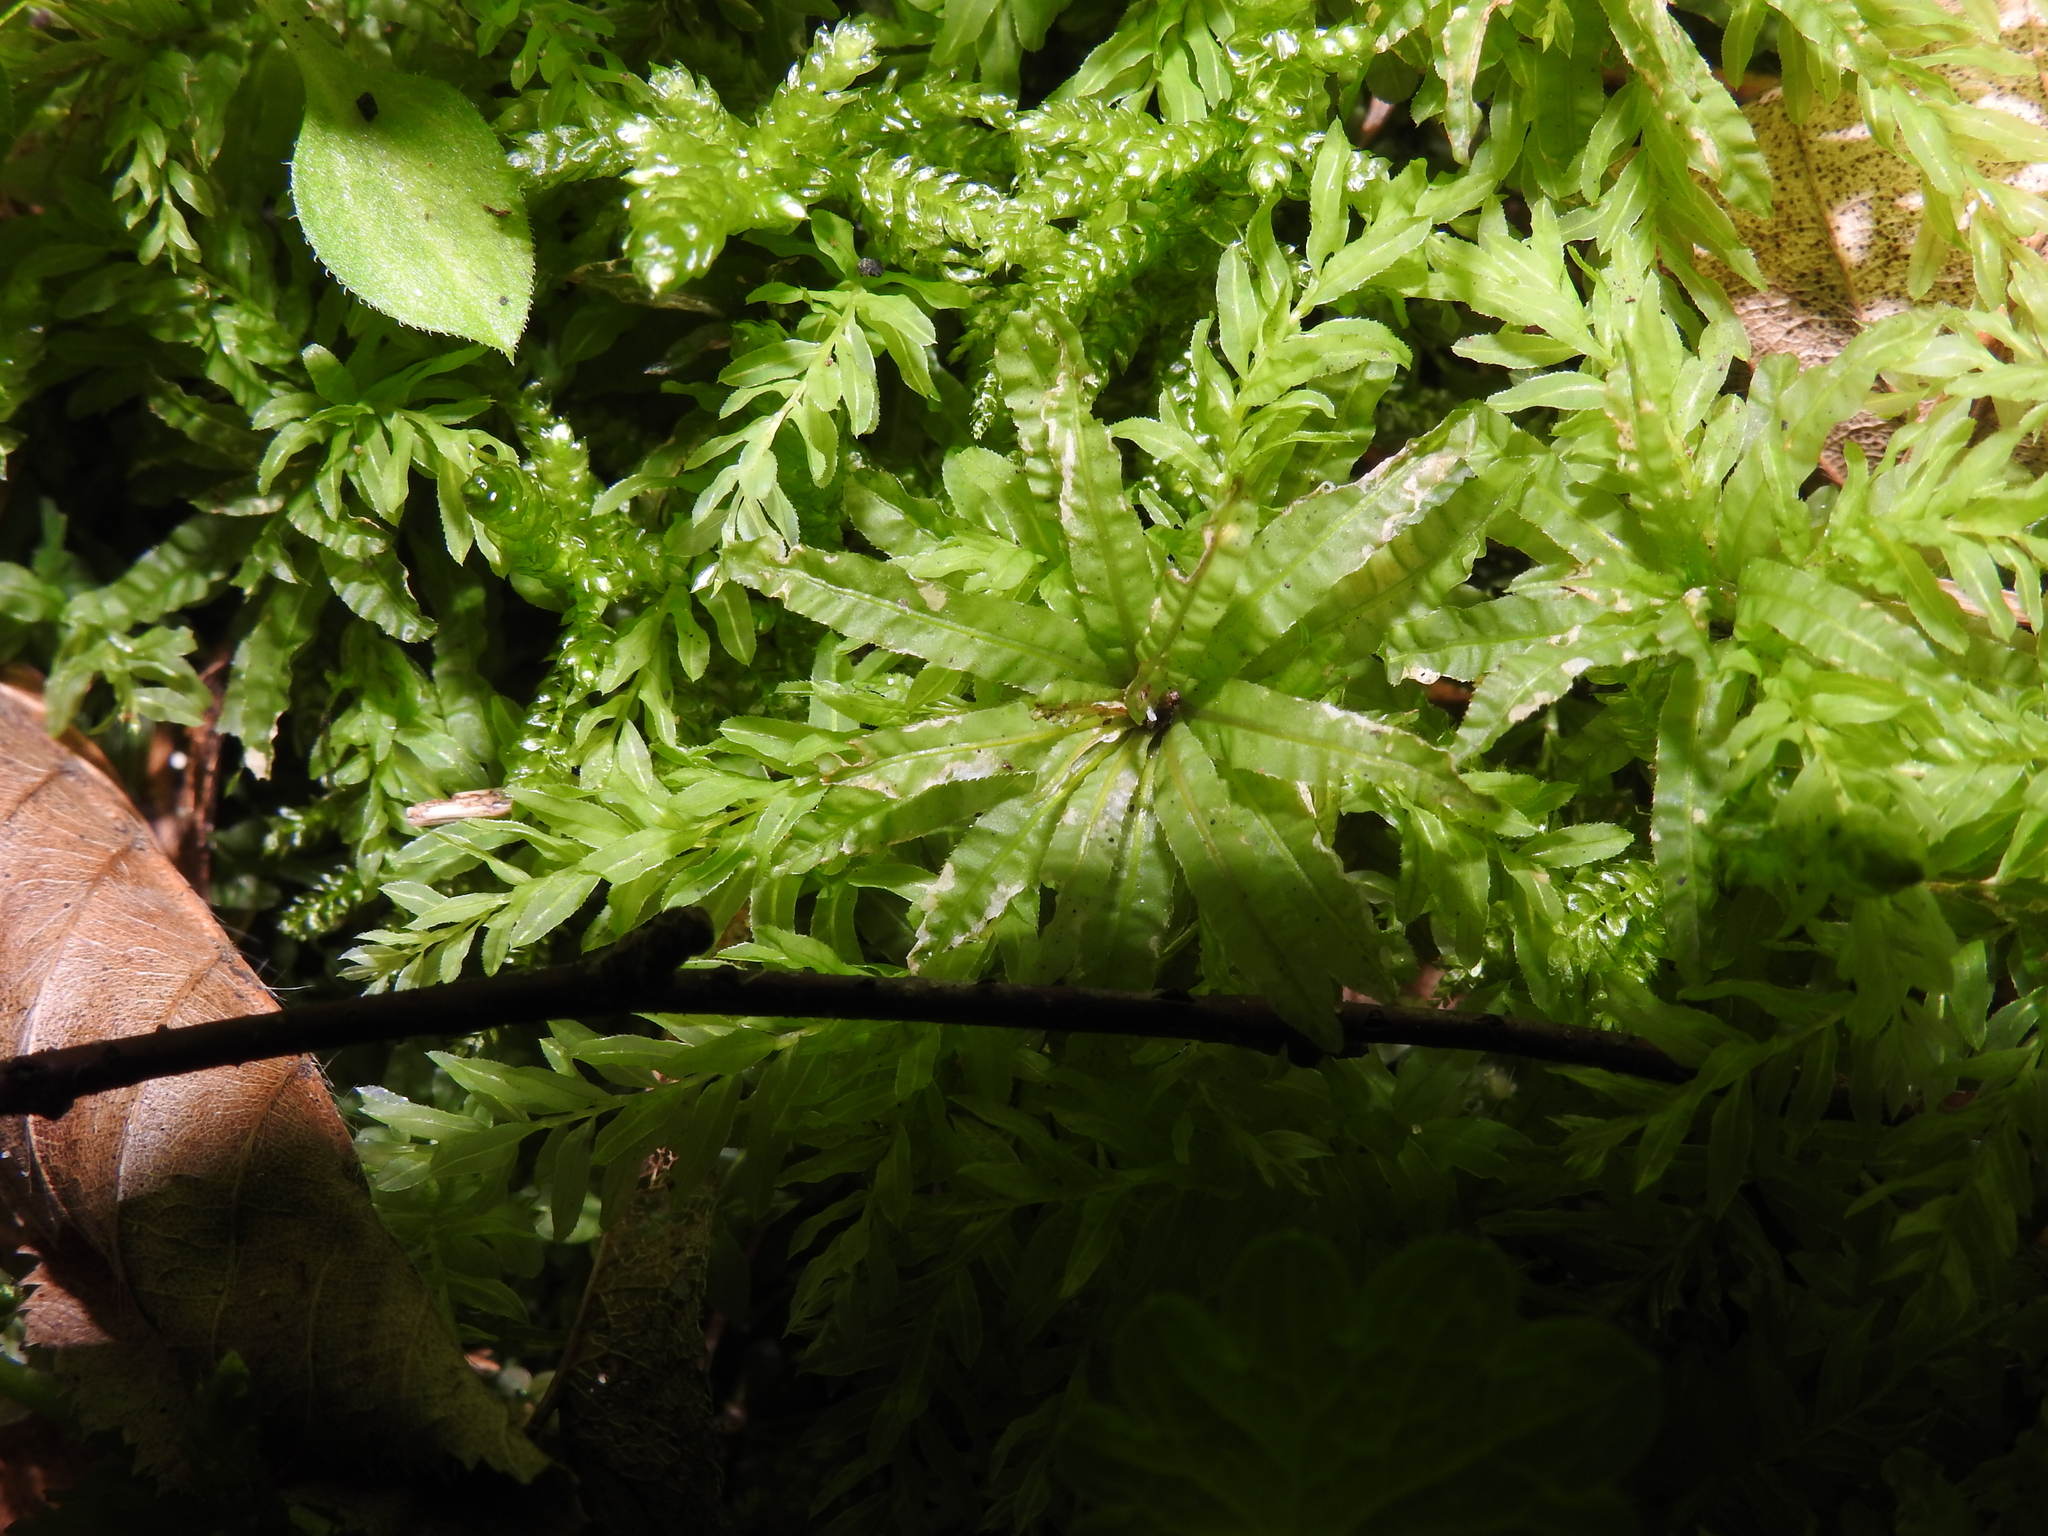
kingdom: Plantae
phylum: Bryophyta
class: Bryopsida
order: Bryales
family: Mniaceae
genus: Plagiomnium
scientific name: Plagiomnium undulatum
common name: Hart's-tongue thyme-moss
